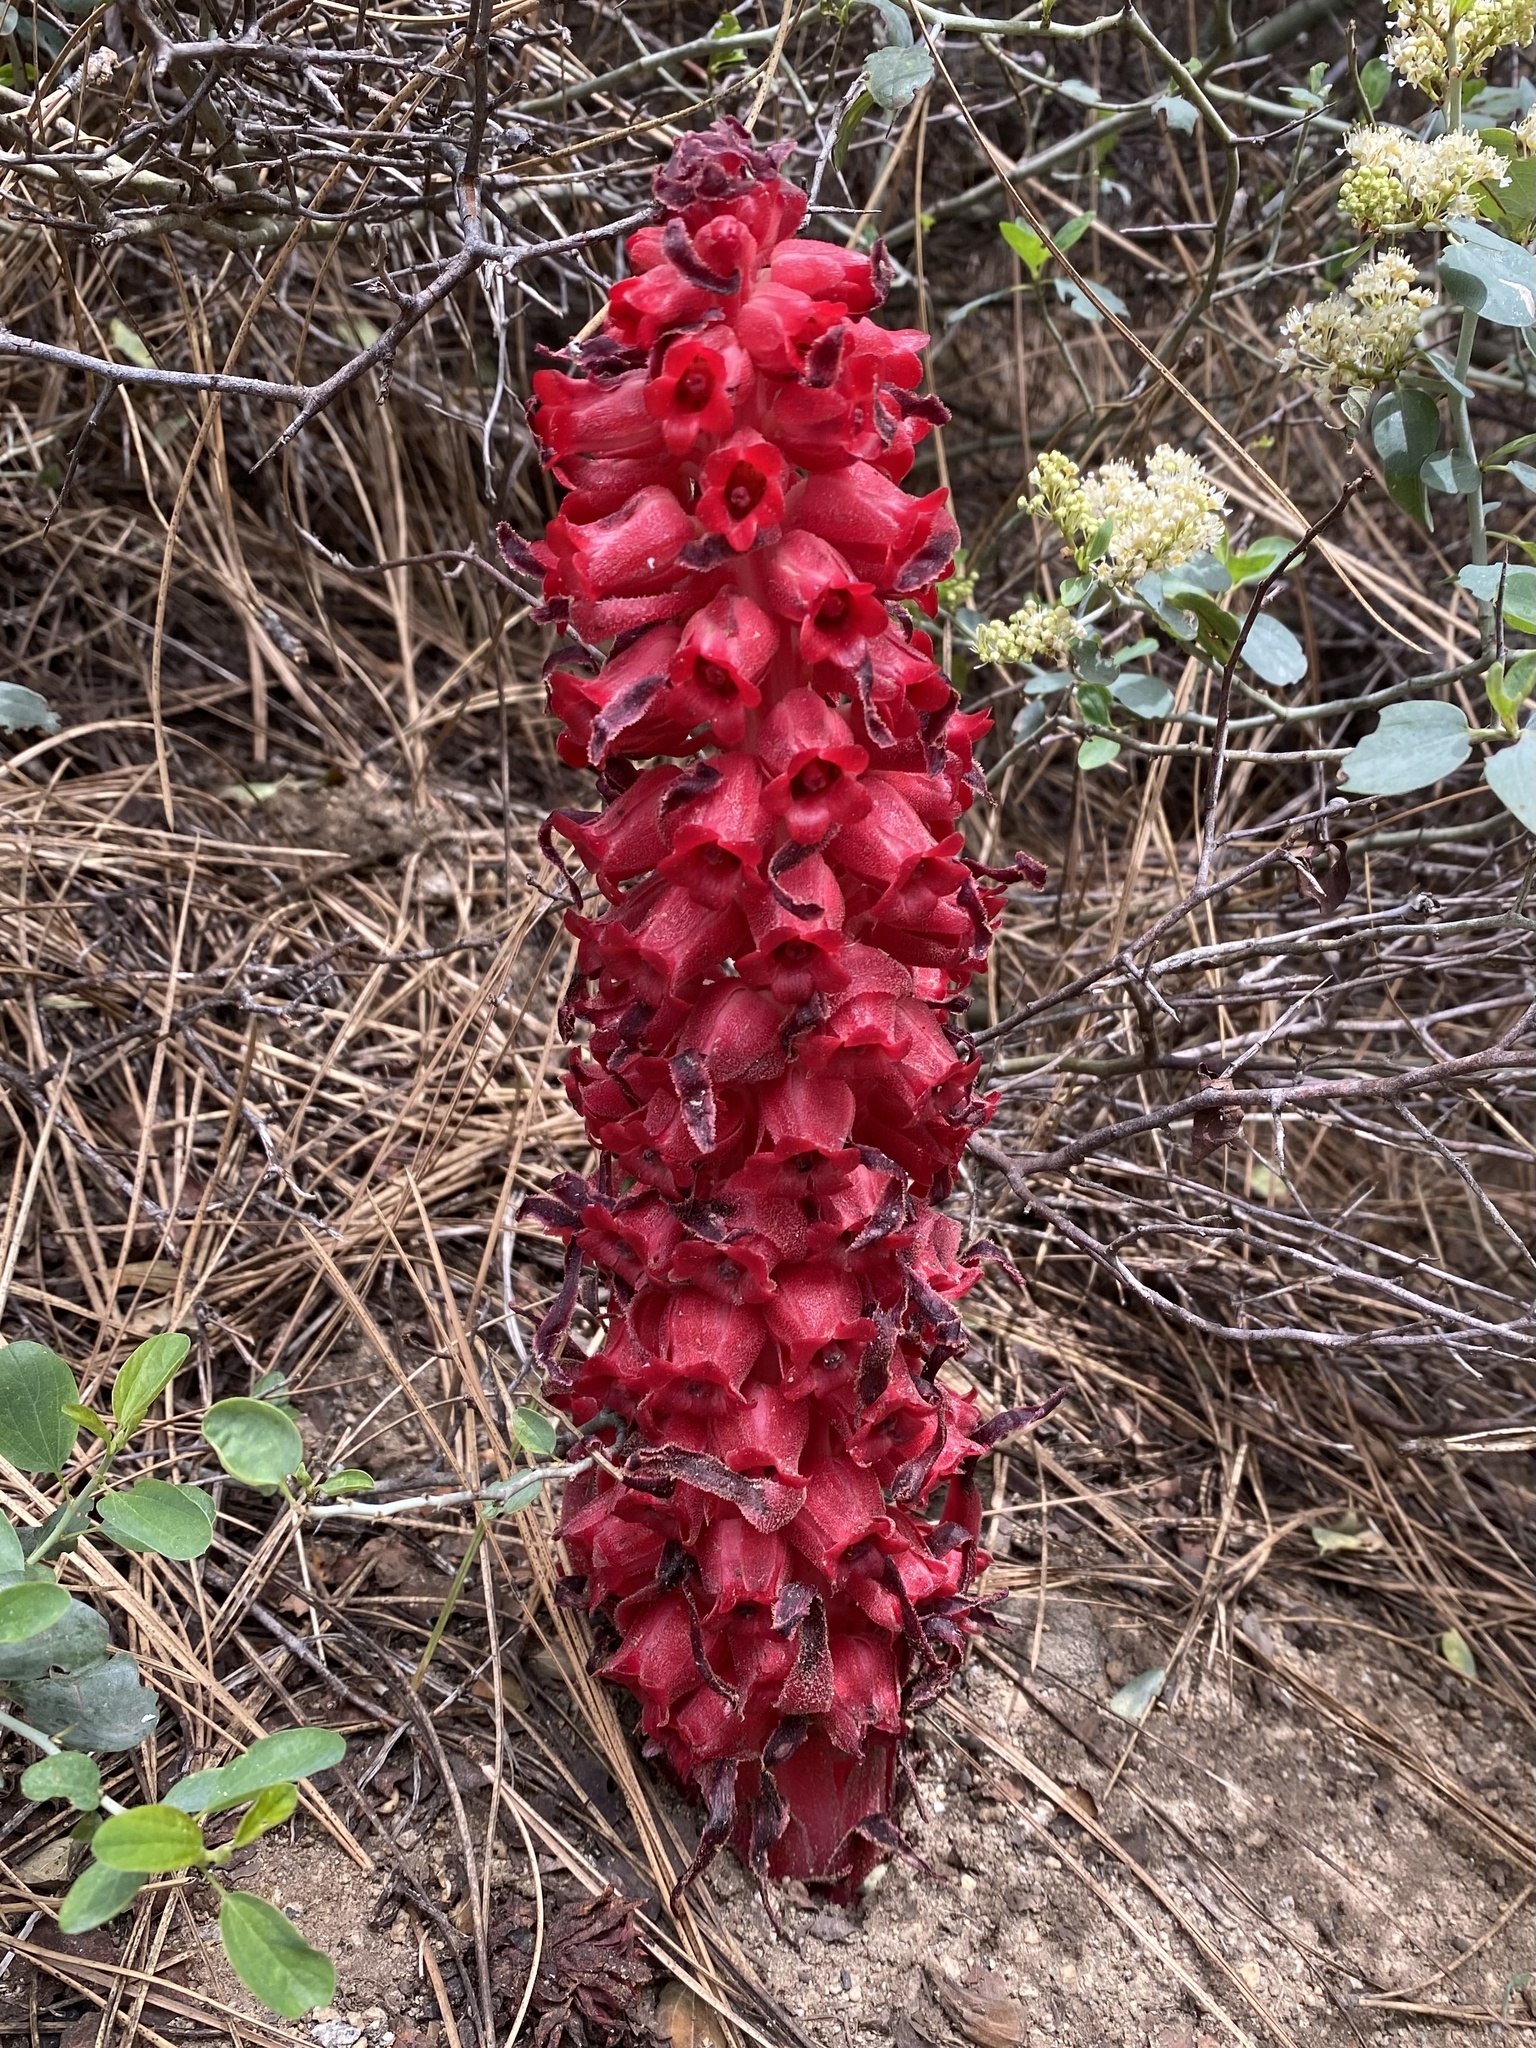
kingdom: Plantae
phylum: Tracheophyta
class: Magnoliopsida
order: Ericales
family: Ericaceae
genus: Sarcodes
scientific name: Sarcodes sanguinea
